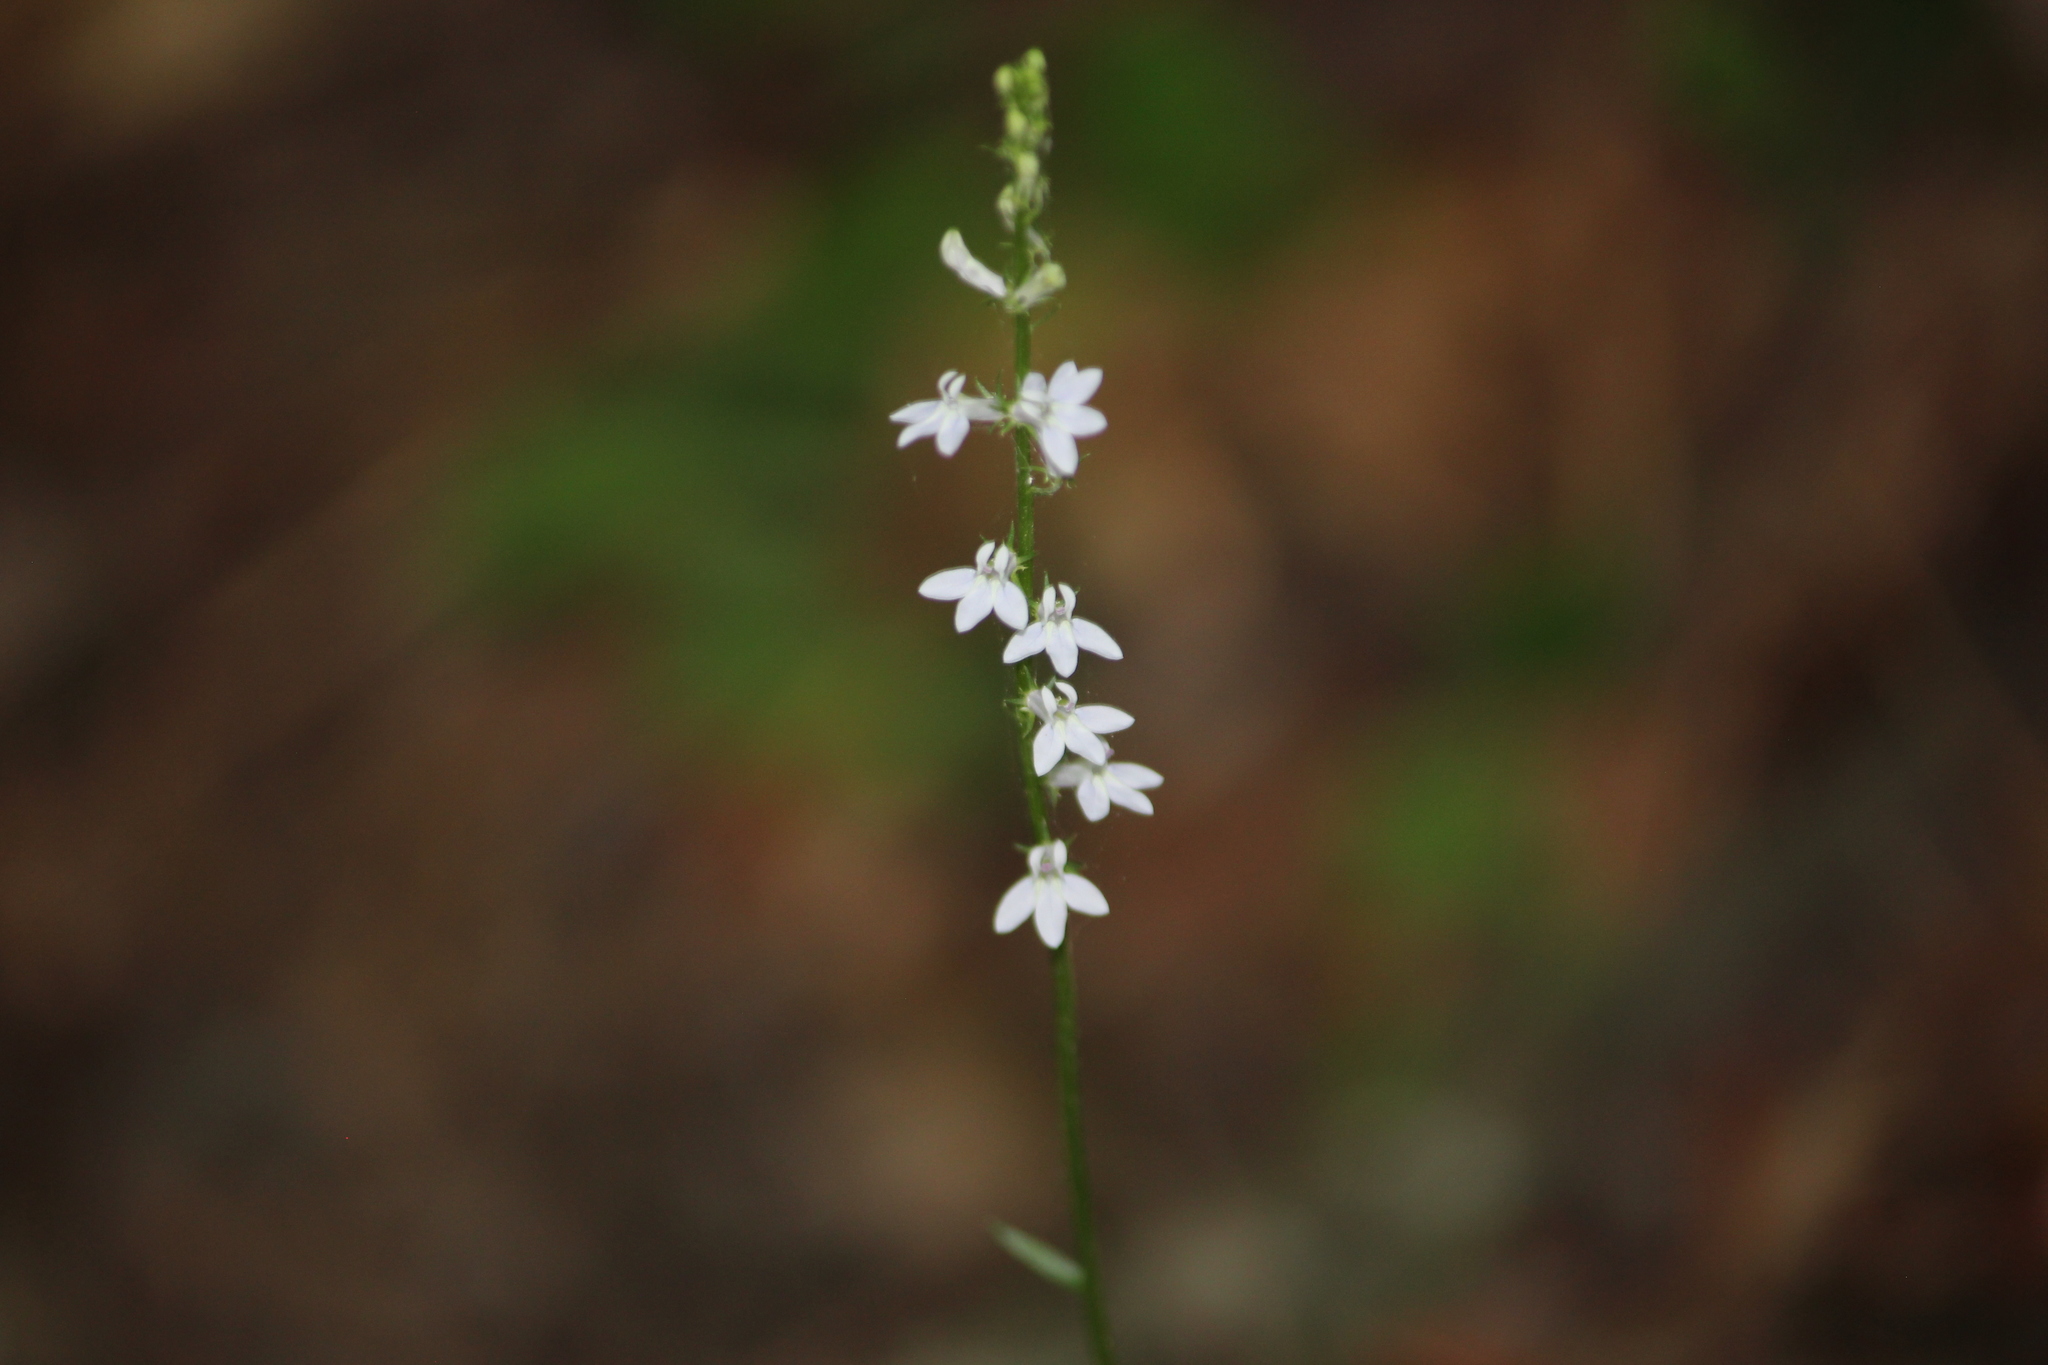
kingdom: Plantae
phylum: Tracheophyta
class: Magnoliopsida
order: Asterales
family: Campanulaceae
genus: Lobelia
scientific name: Lobelia spicata
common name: Pale-spike lobelia
